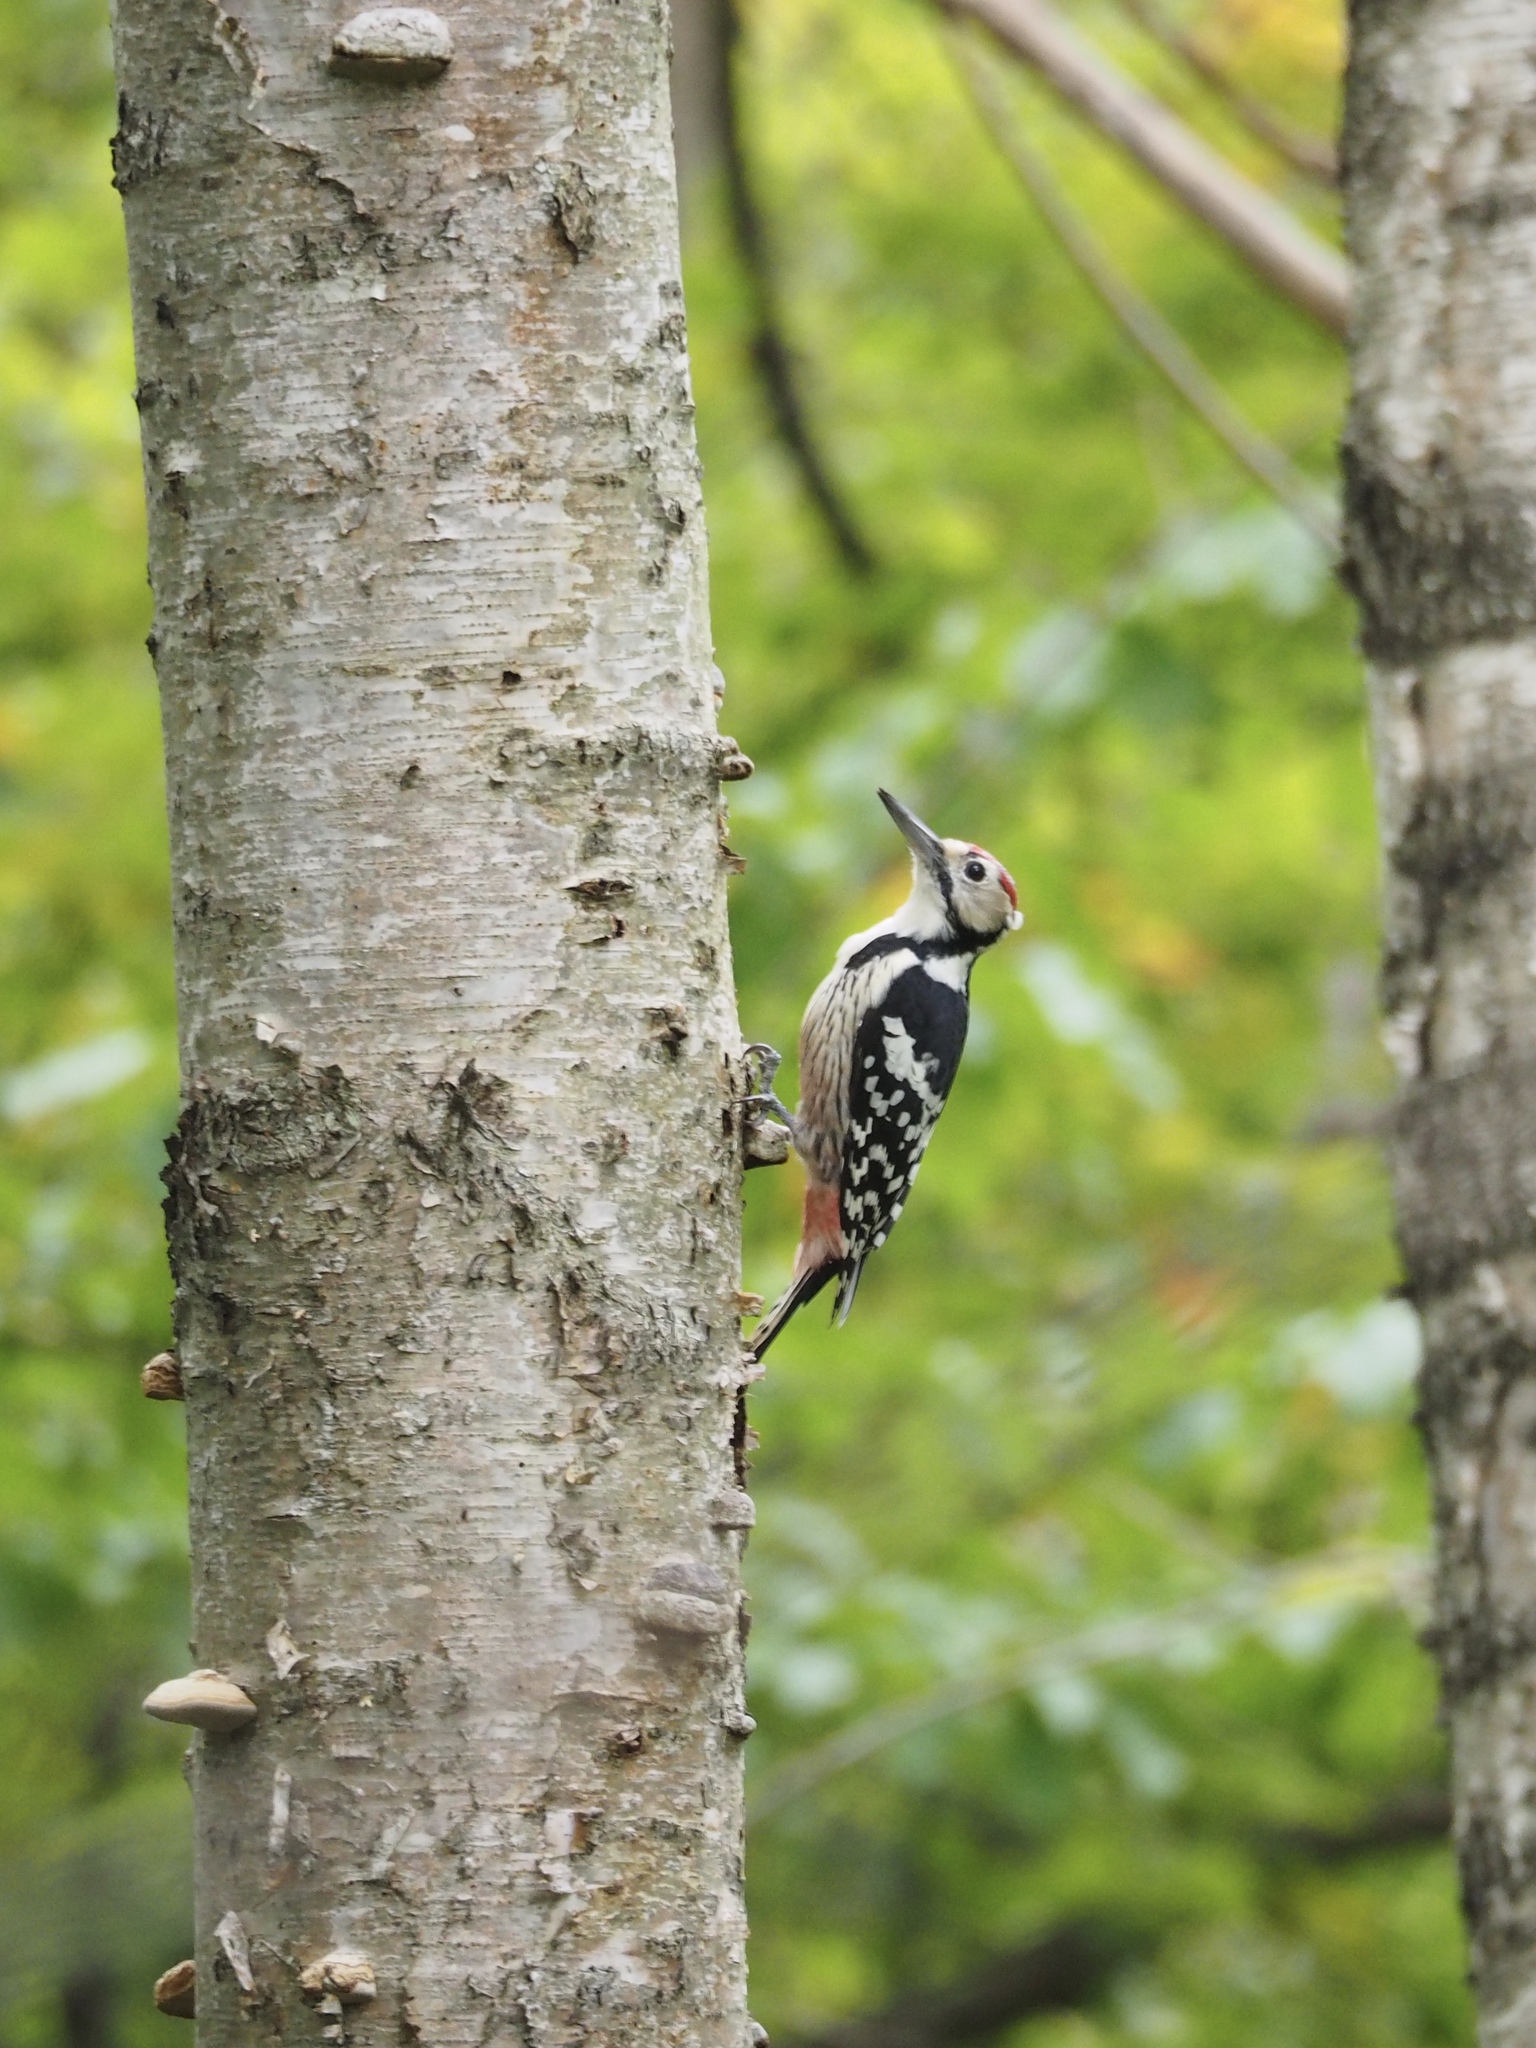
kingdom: Animalia
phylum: Chordata
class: Aves
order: Piciformes
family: Picidae
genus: Dendrocopos
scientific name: Dendrocopos leucotos
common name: White-backed woodpecker
